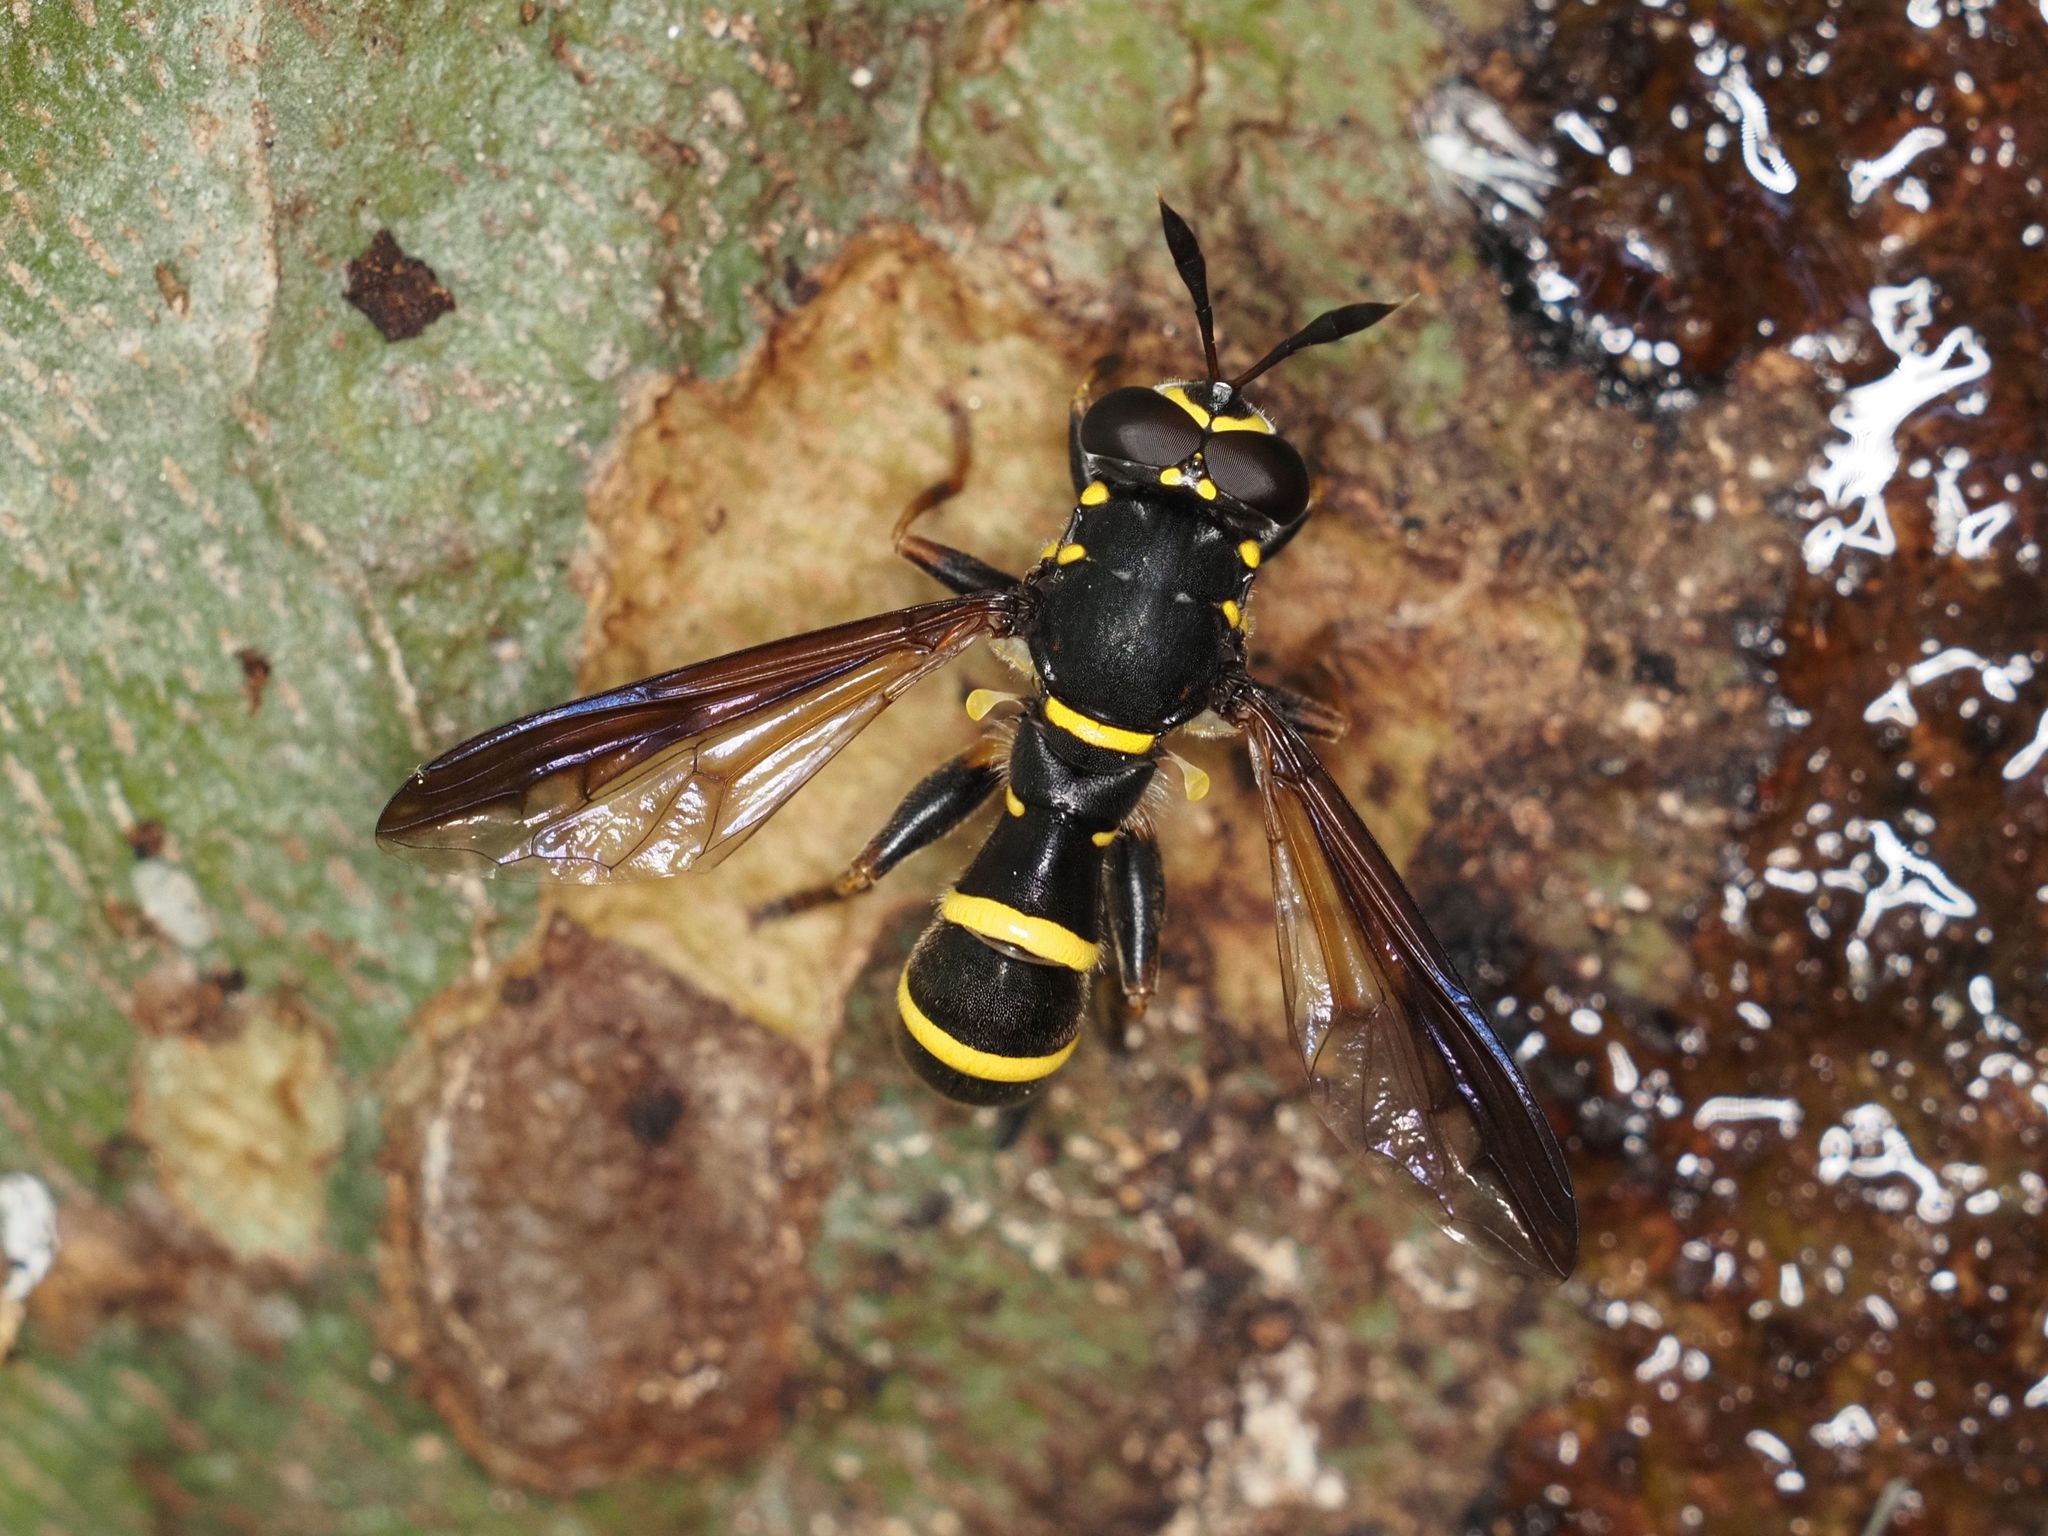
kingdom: Animalia
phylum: Arthropoda
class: Insecta
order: Diptera
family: Syrphidae
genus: Sphiximorpha
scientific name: Sphiximorpha subsessilis
